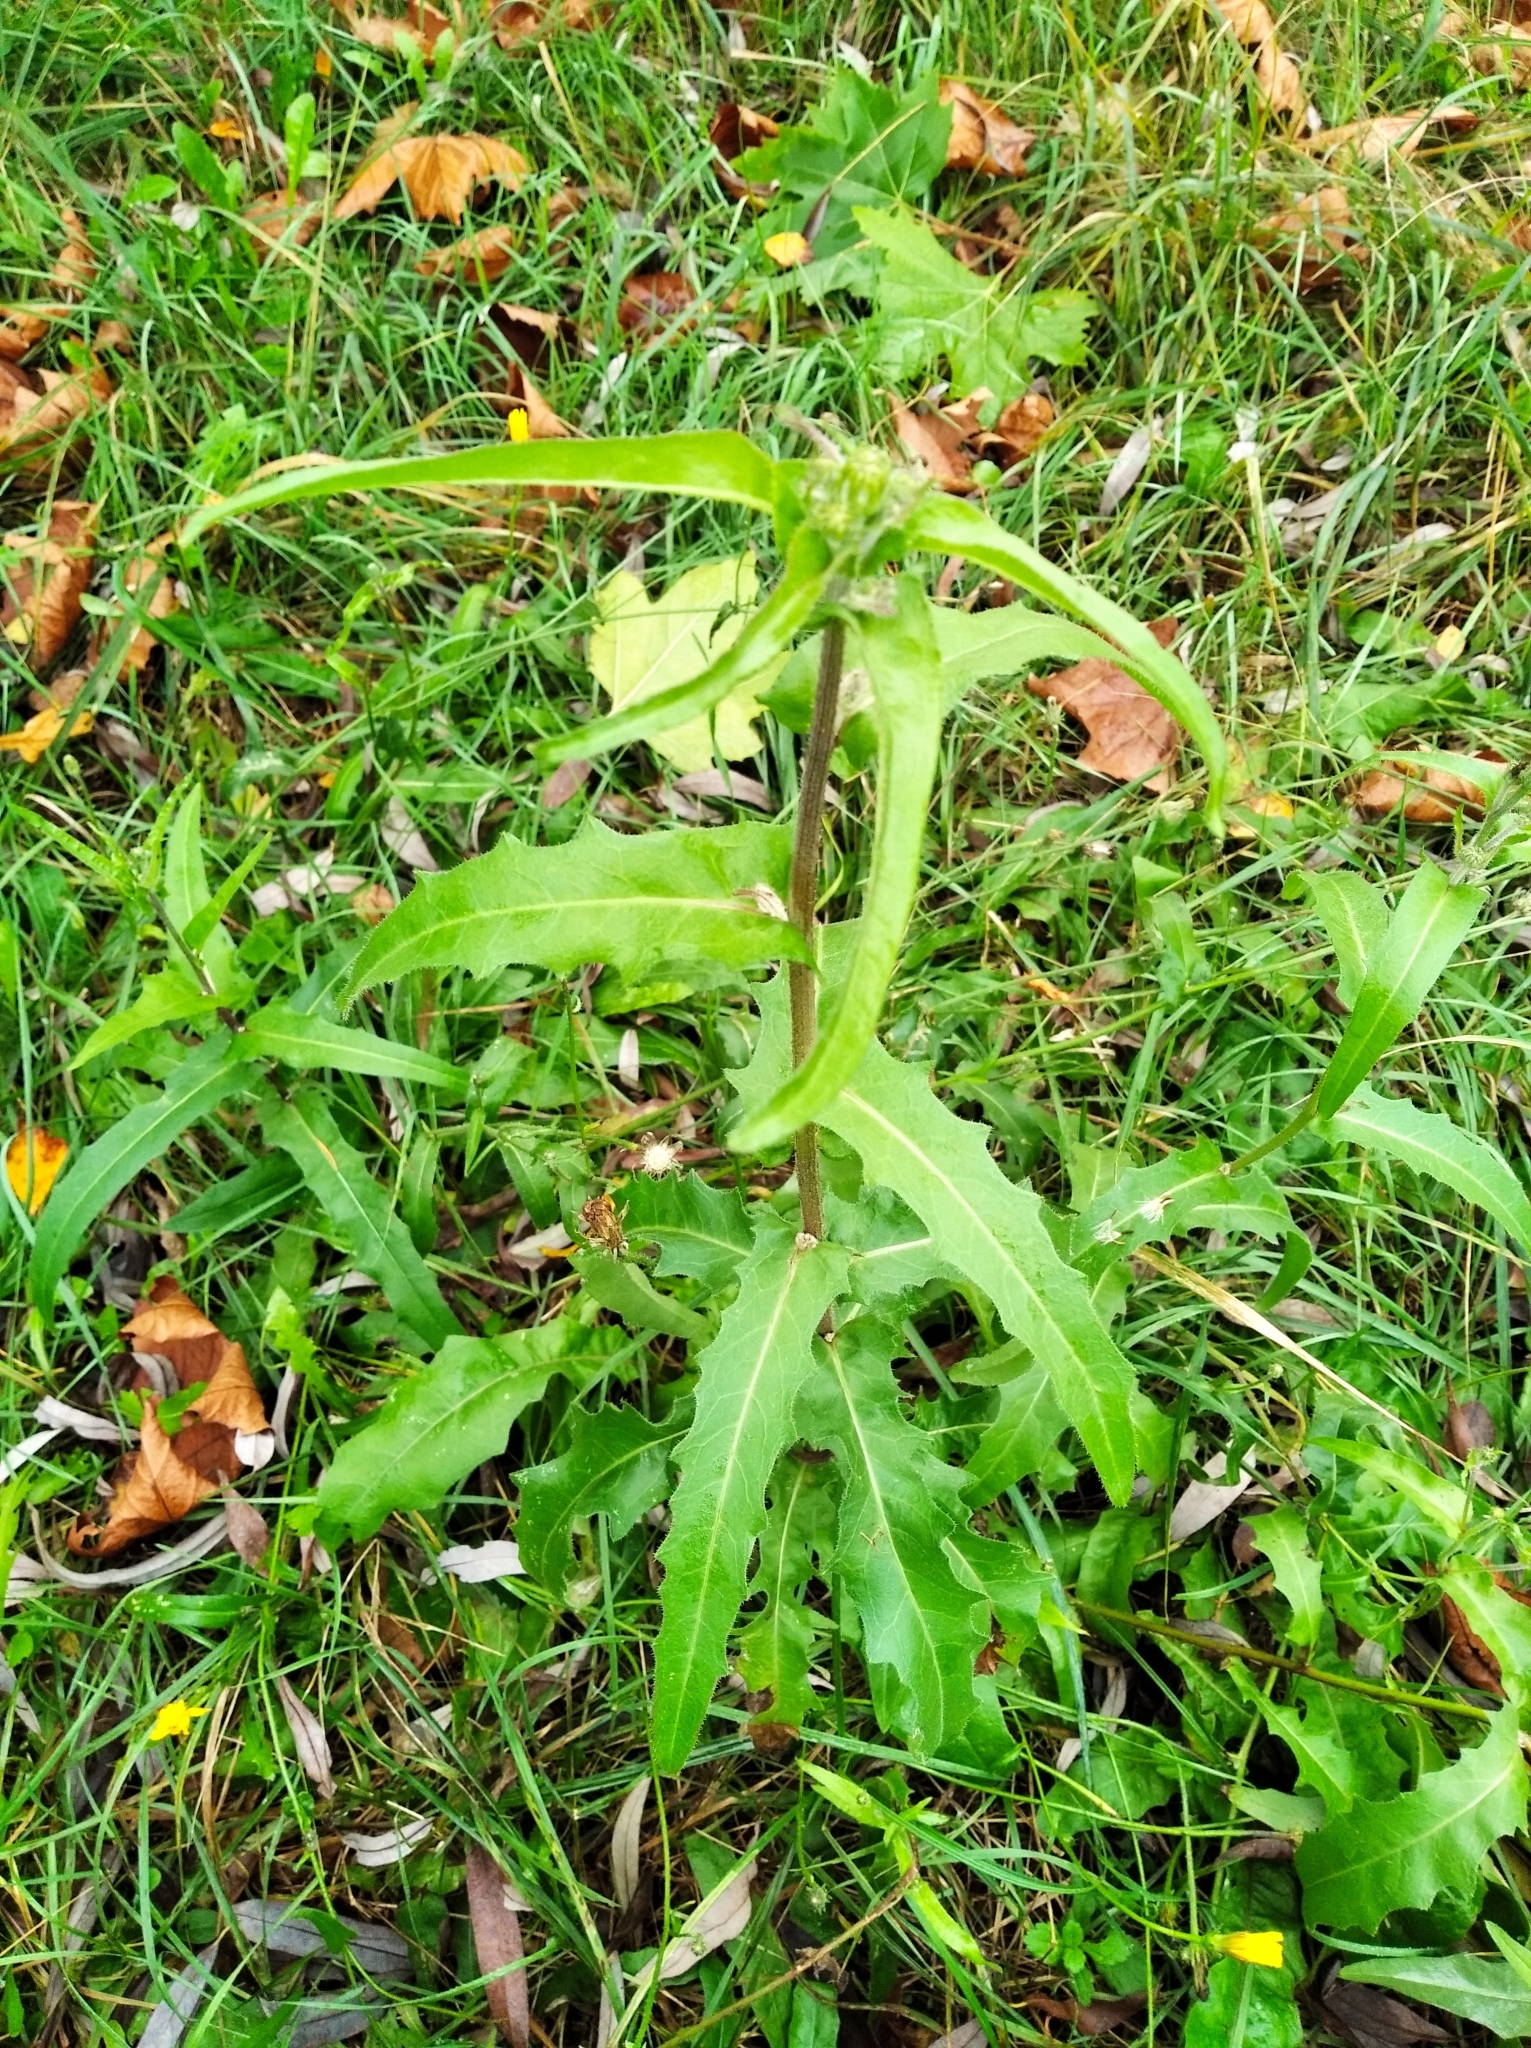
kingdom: Plantae
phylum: Tracheophyta
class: Magnoliopsida
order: Asterales
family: Asteraceae
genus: Picris
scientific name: Picris hieracioides
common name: Hawkweed oxtongue
